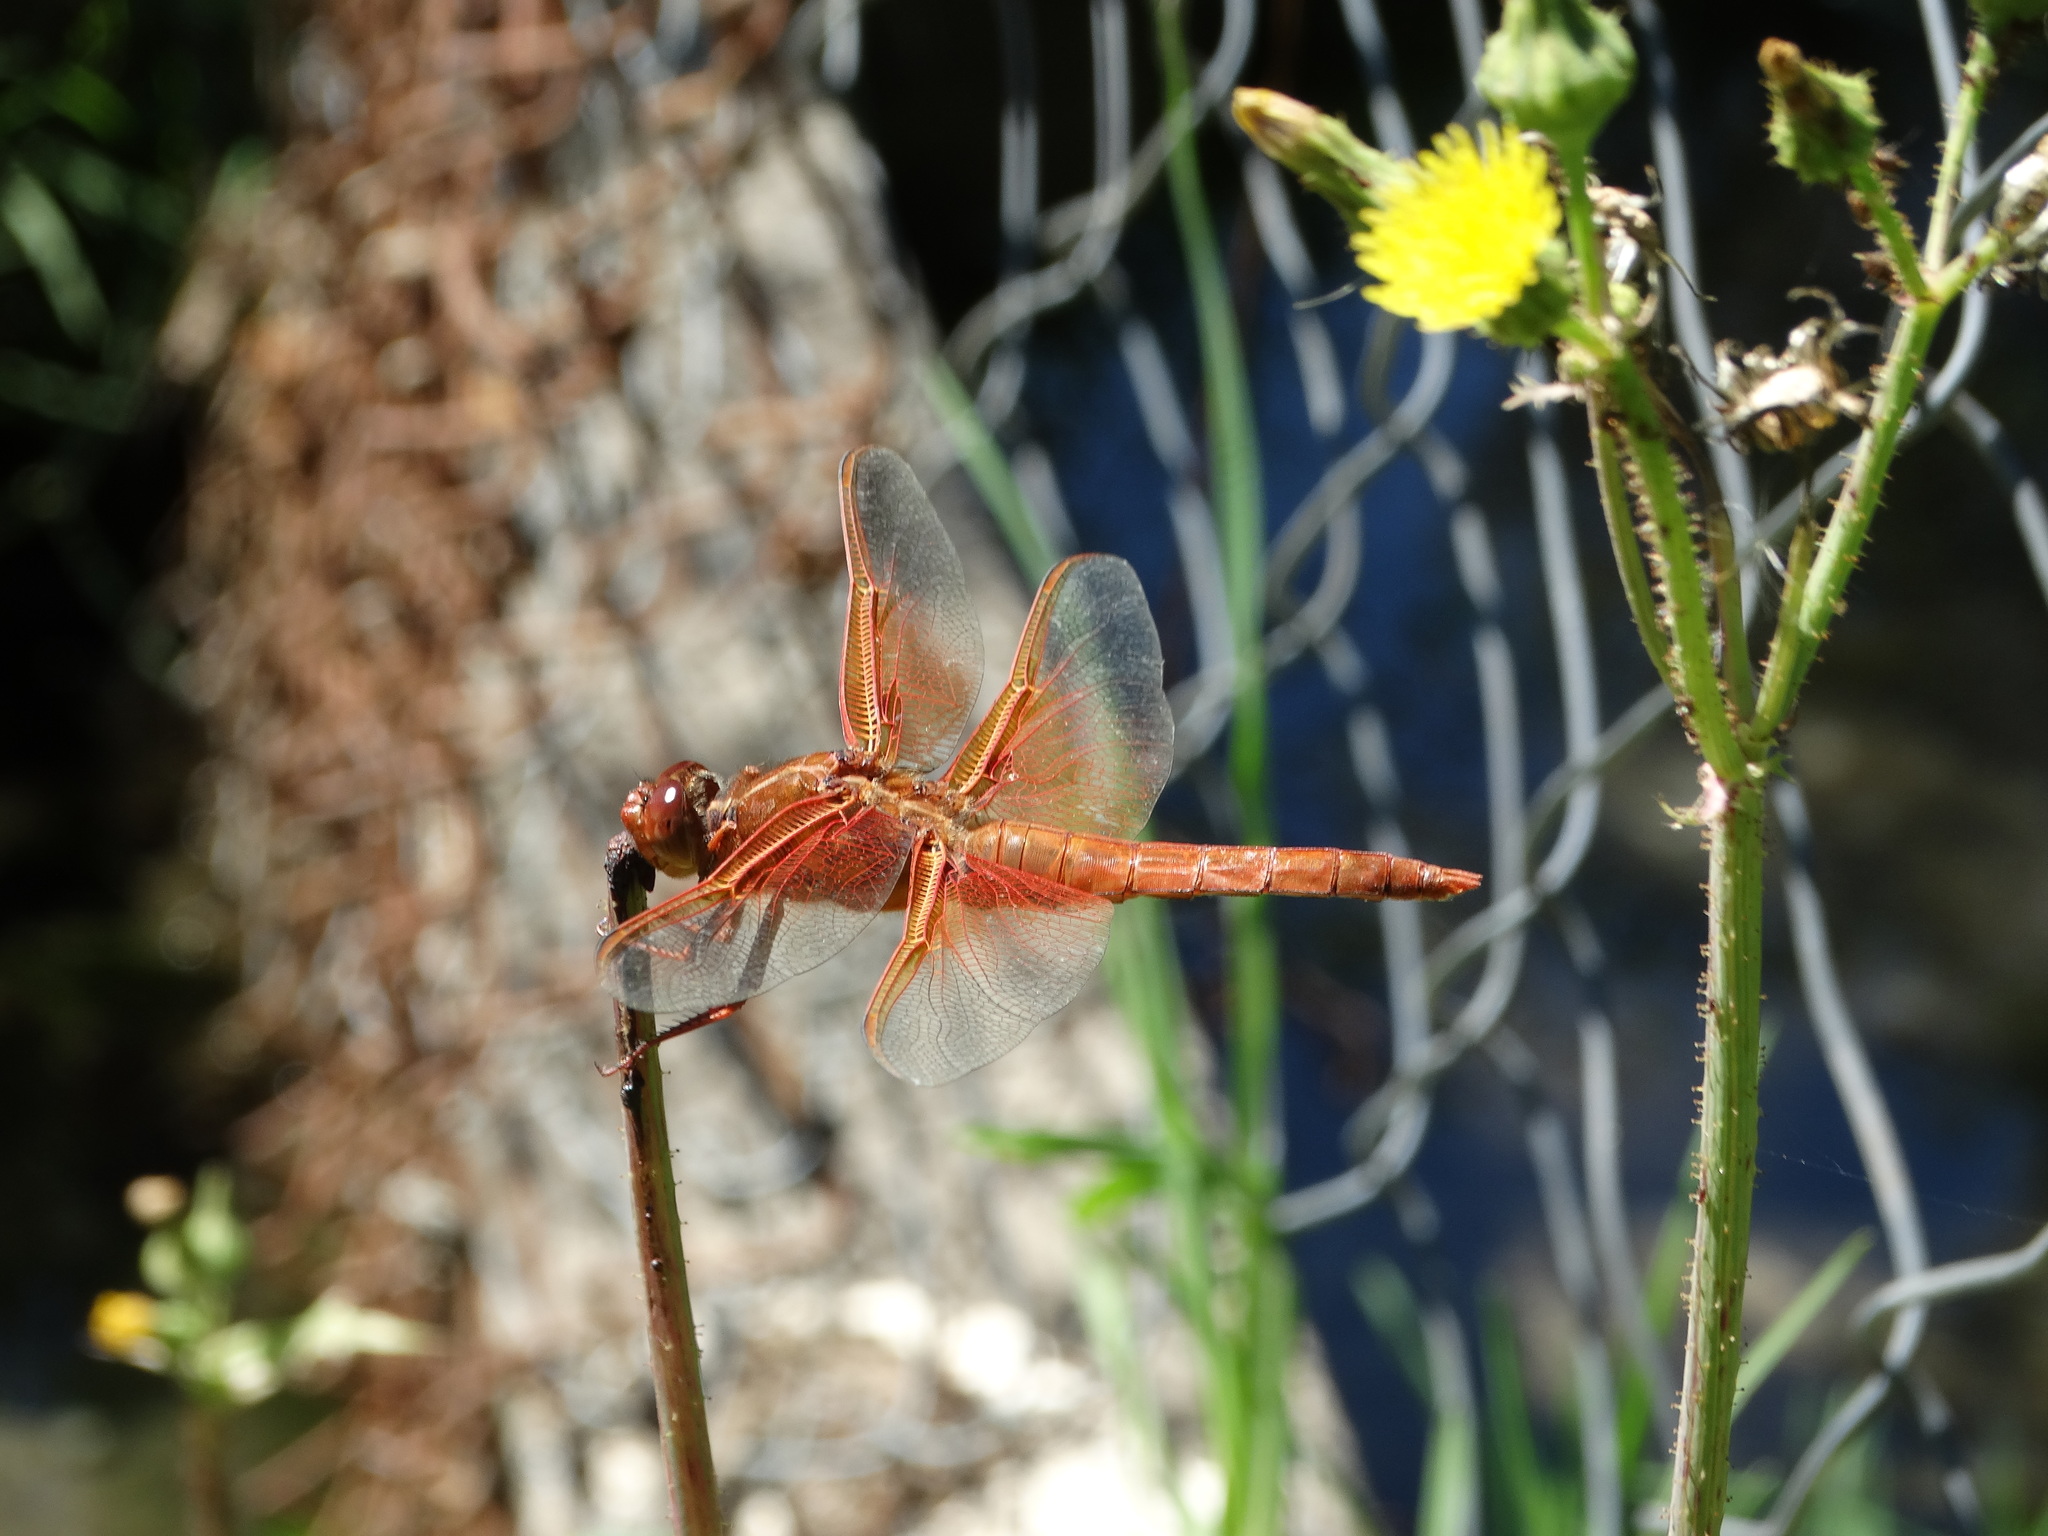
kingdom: Animalia
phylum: Arthropoda
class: Insecta
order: Odonata
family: Libellulidae
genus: Libellula
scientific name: Libellula saturata
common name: Flame skimmer
